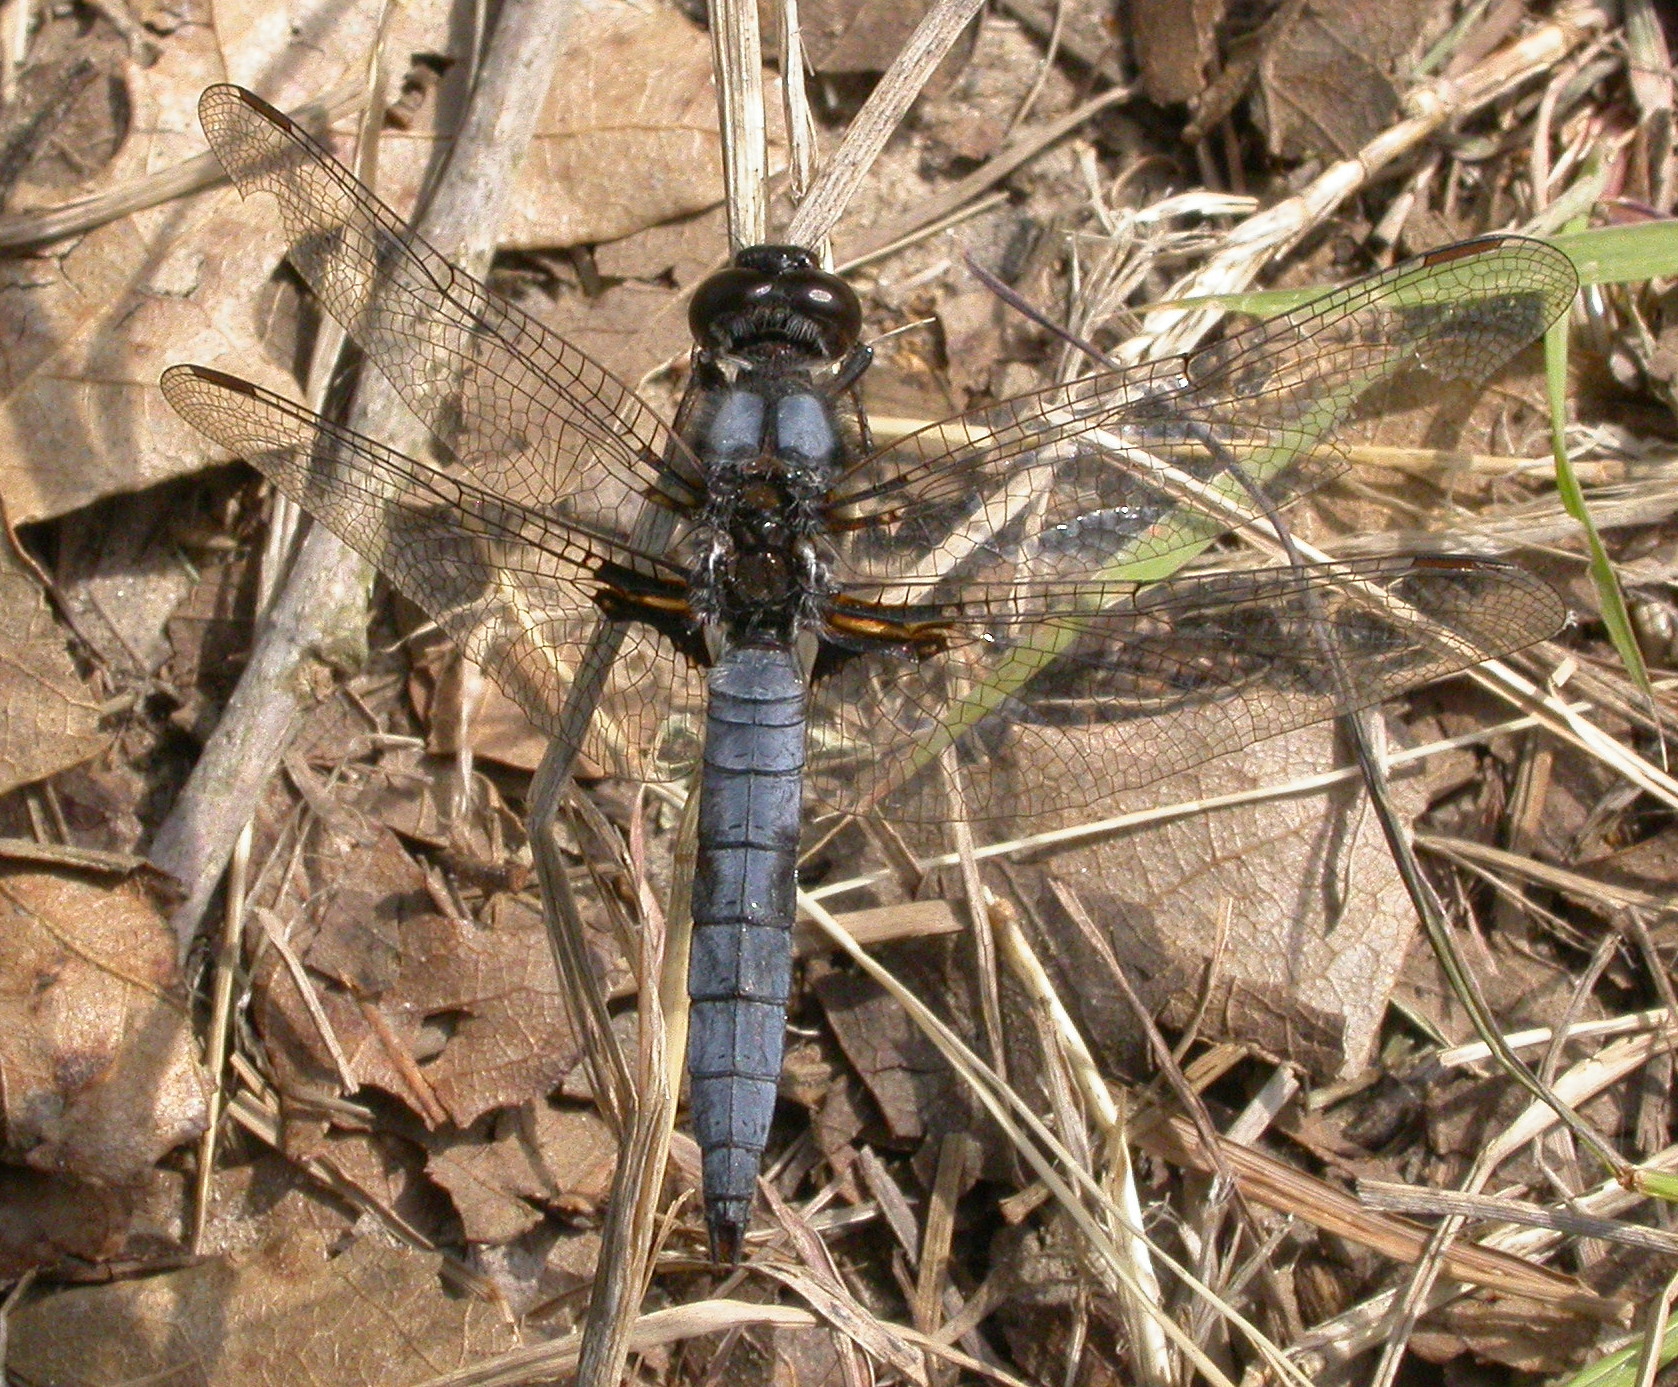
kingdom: Animalia
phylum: Arthropoda
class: Insecta
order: Odonata
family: Libellulidae
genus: Ladona
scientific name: Ladona deplanata
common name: Blue corporal
